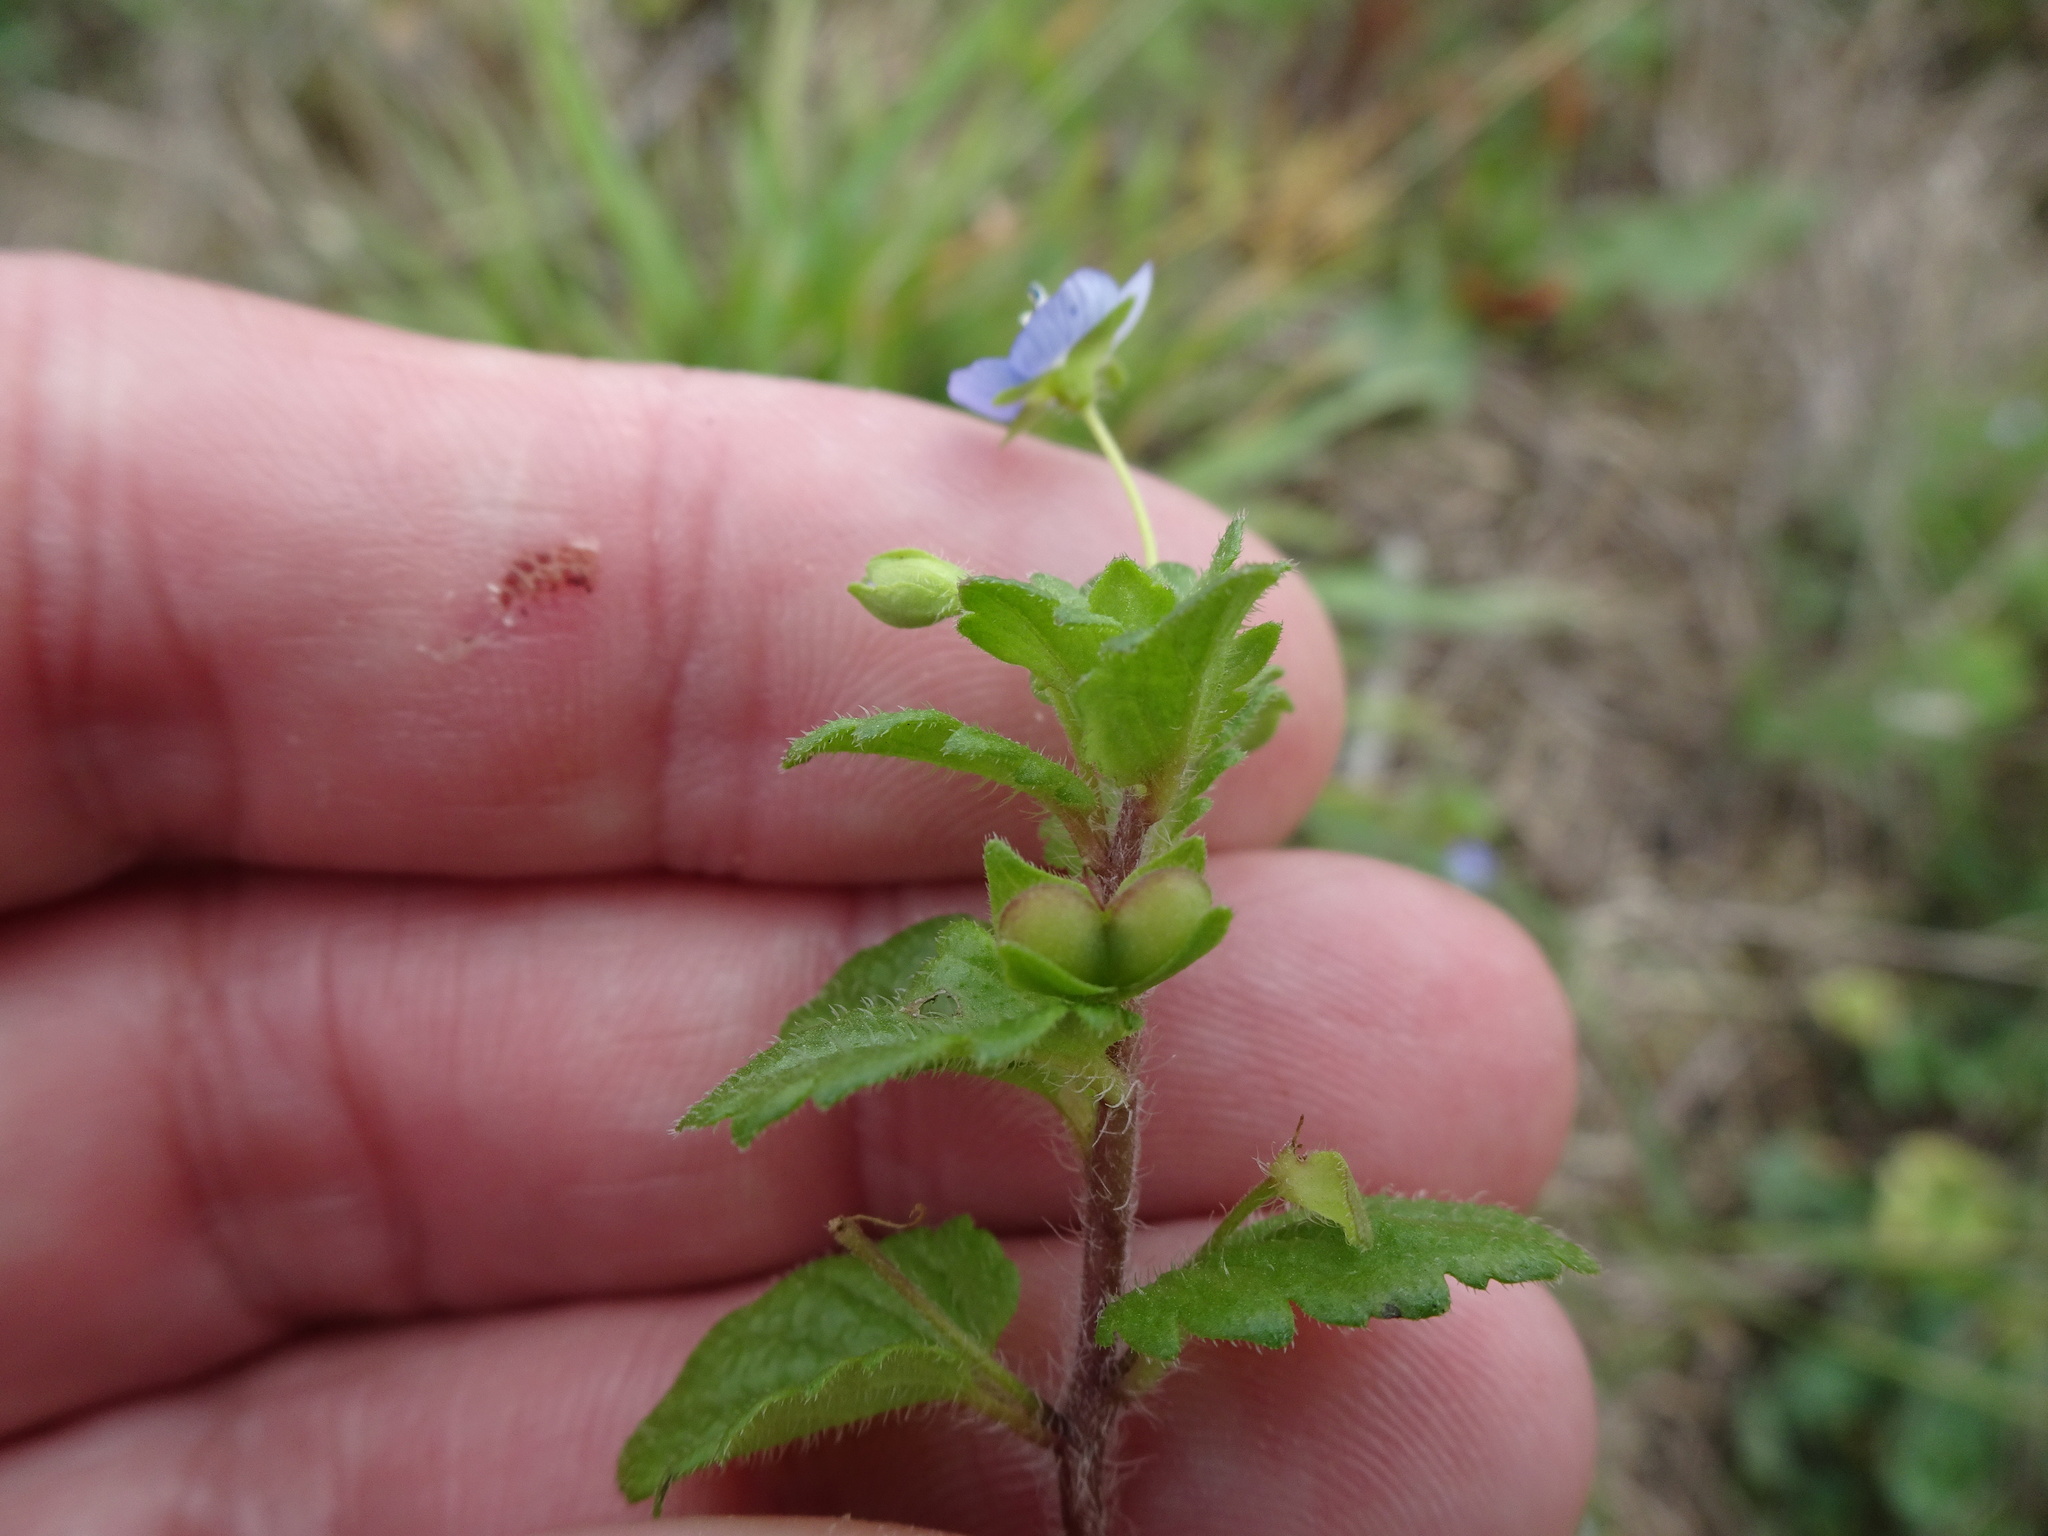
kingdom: Plantae
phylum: Tracheophyta
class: Magnoliopsida
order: Lamiales
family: Plantaginaceae
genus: Veronica
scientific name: Veronica persica
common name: Common field-speedwell
